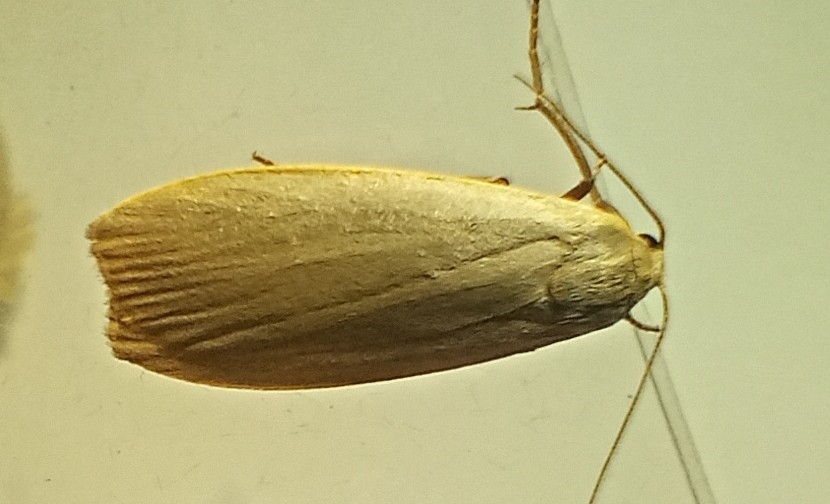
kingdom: Animalia
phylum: Arthropoda
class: Insecta
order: Lepidoptera
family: Erebidae
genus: Collita
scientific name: Collita griseola
